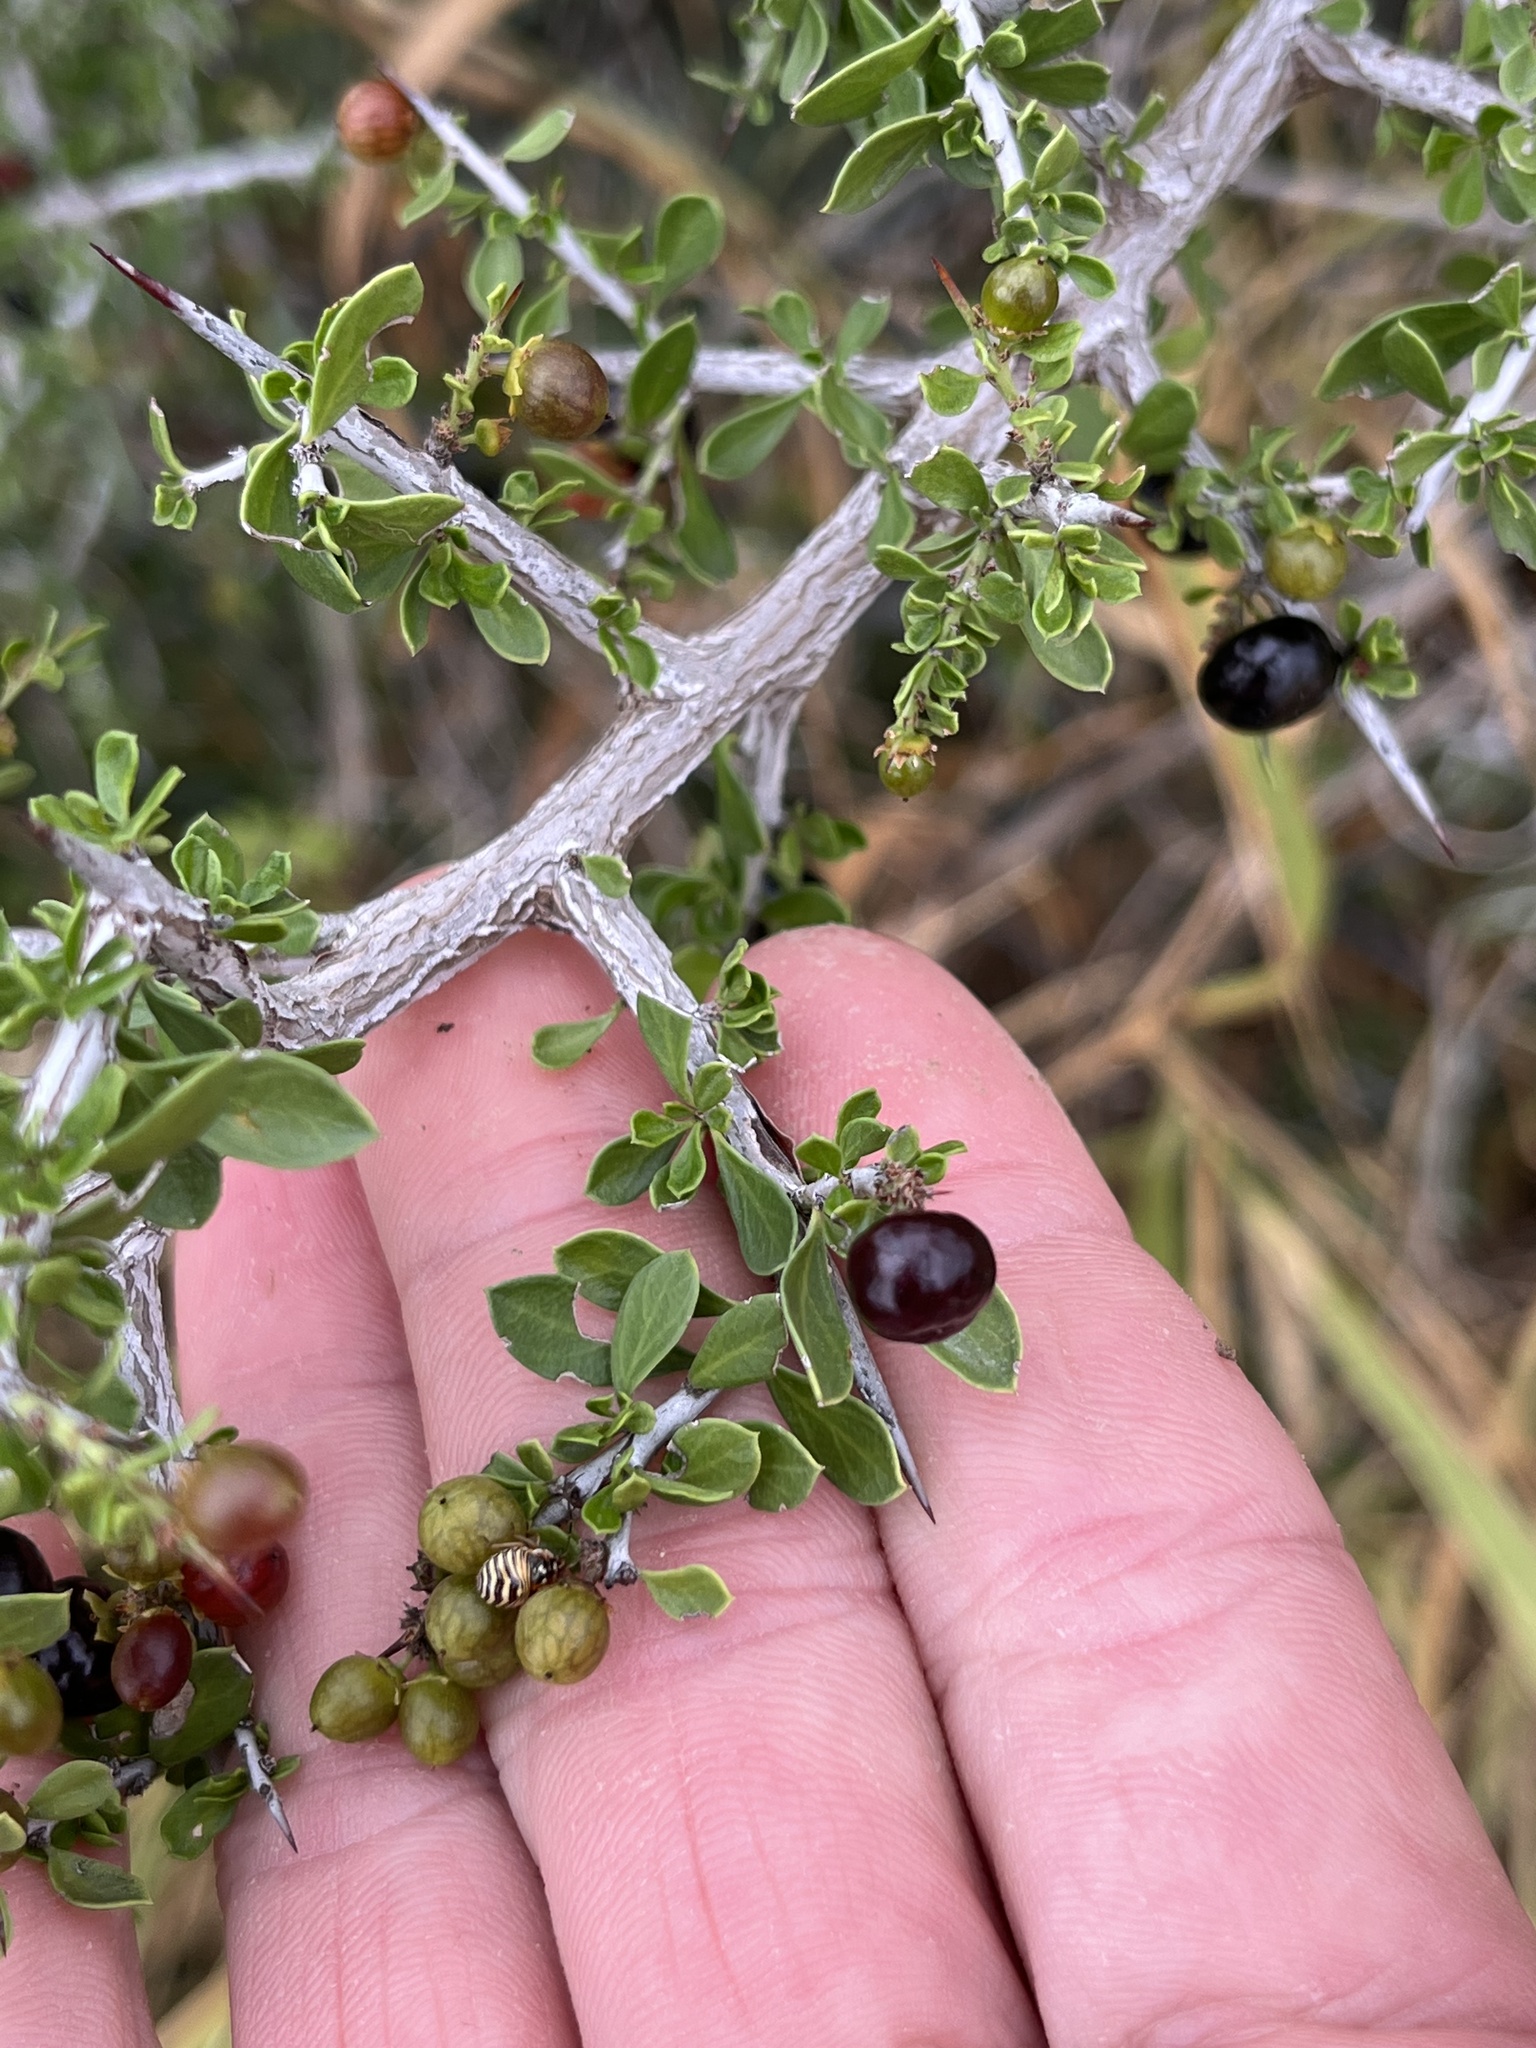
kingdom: Plantae
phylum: Tracheophyta
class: Magnoliopsida
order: Rosales
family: Rhamnaceae
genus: Condalia
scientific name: Condalia viridis
